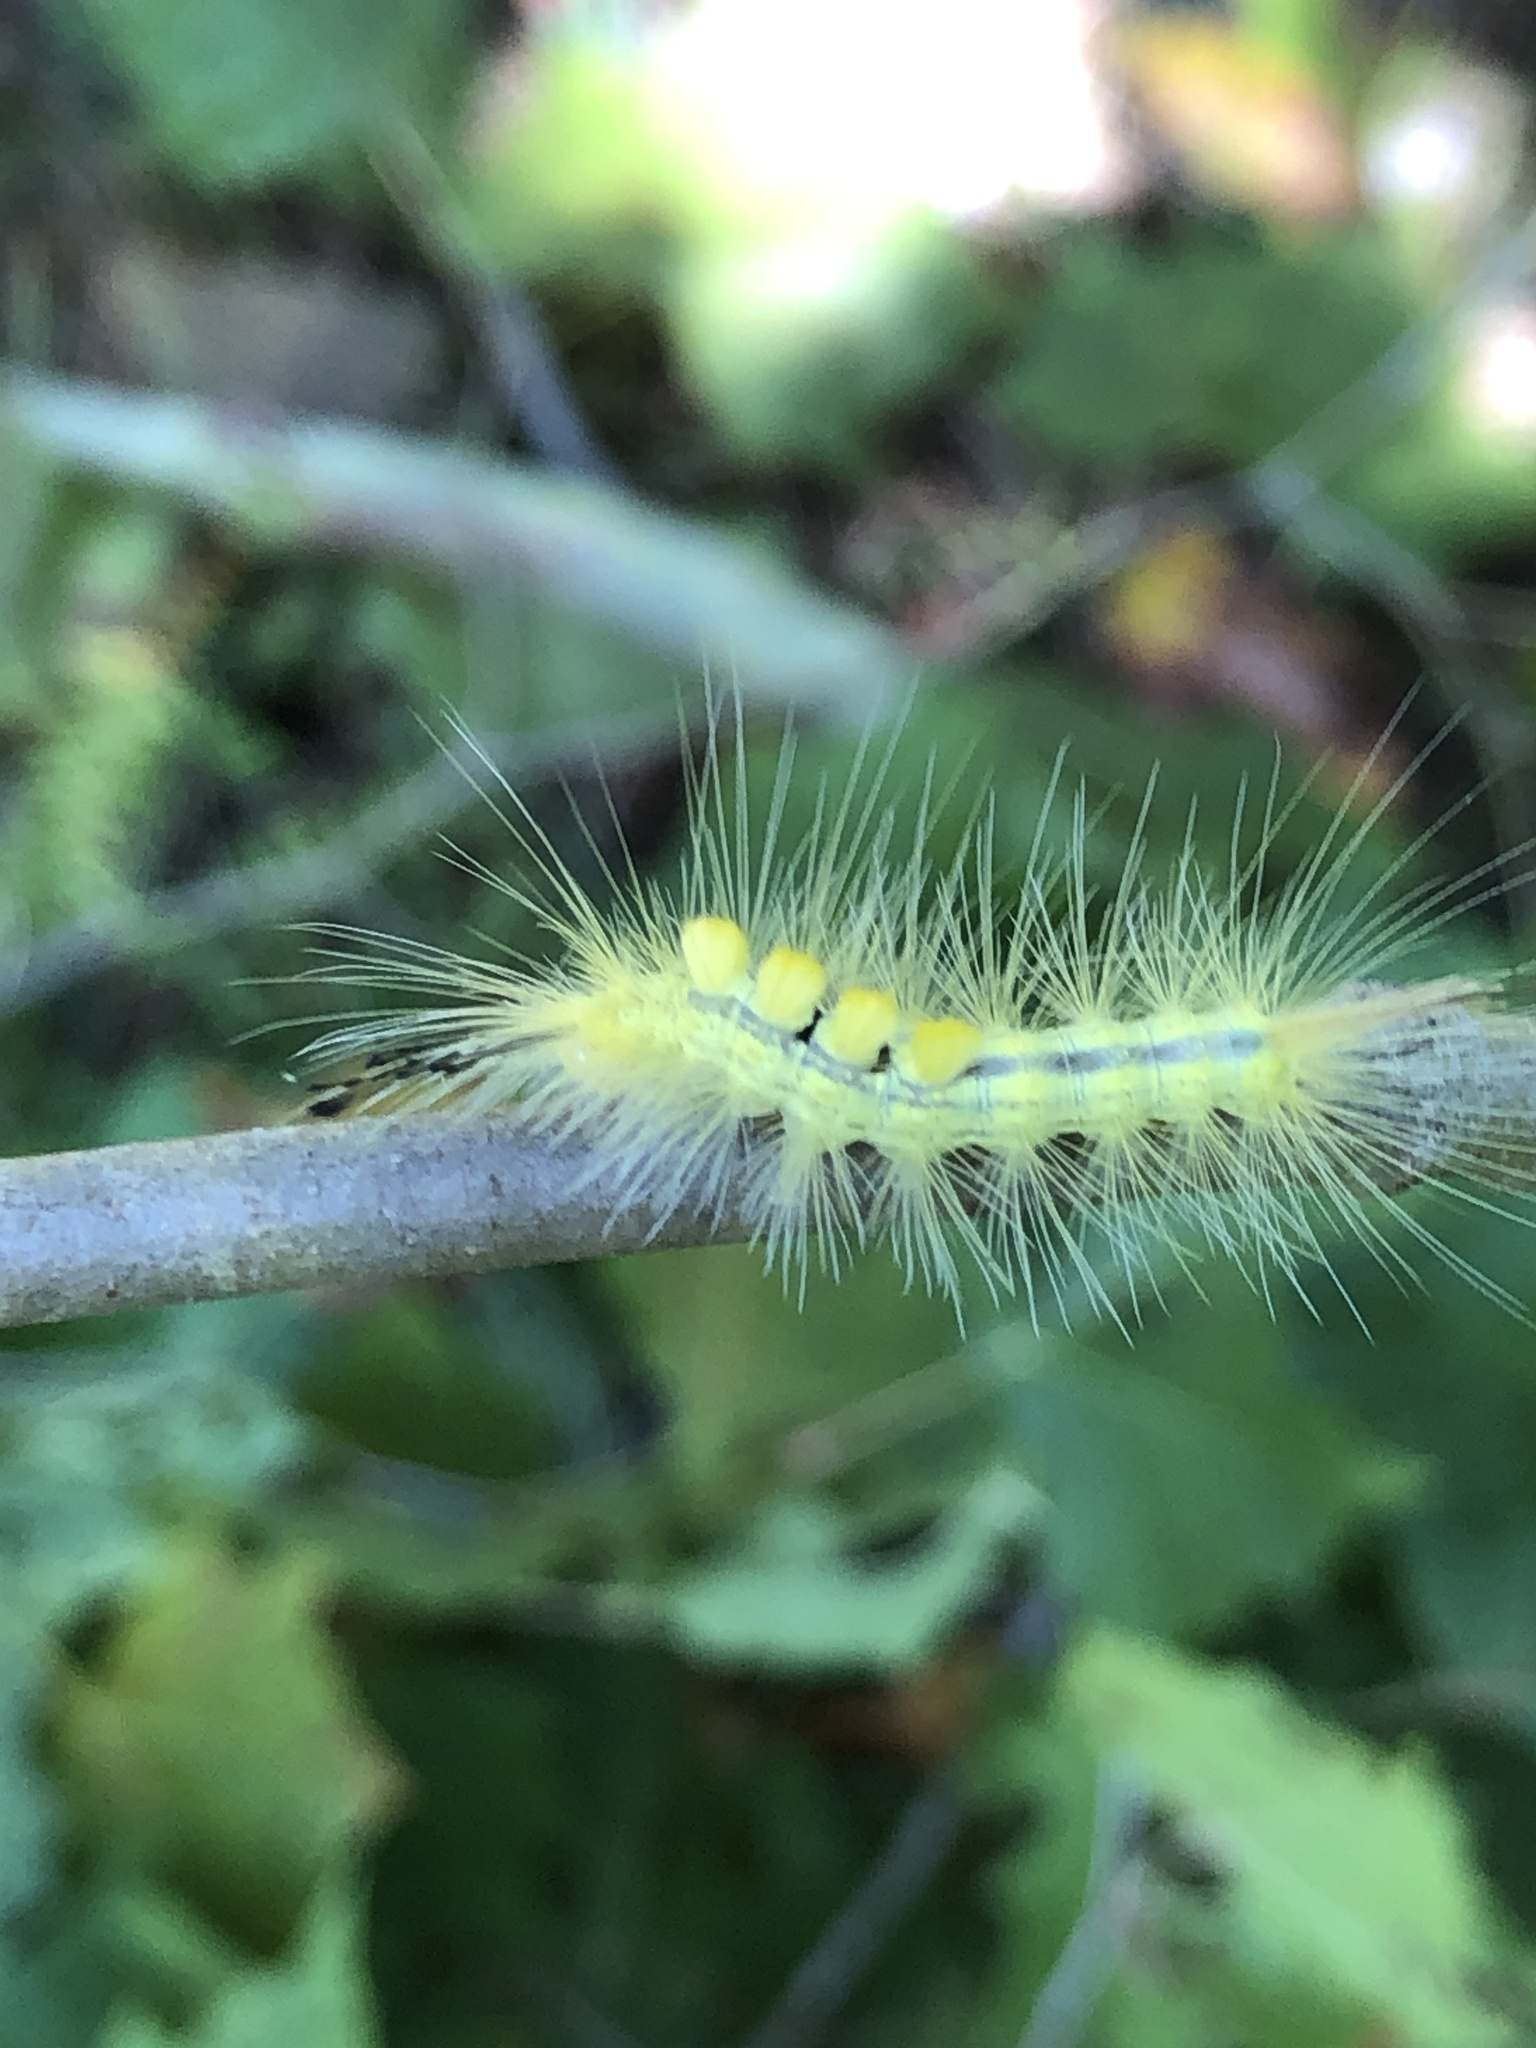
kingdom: Animalia
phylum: Arthropoda
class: Insecta
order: Lepidoptera
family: Erebidae
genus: Orgyia
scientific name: Orgyia definita
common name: Definite tussock moth
